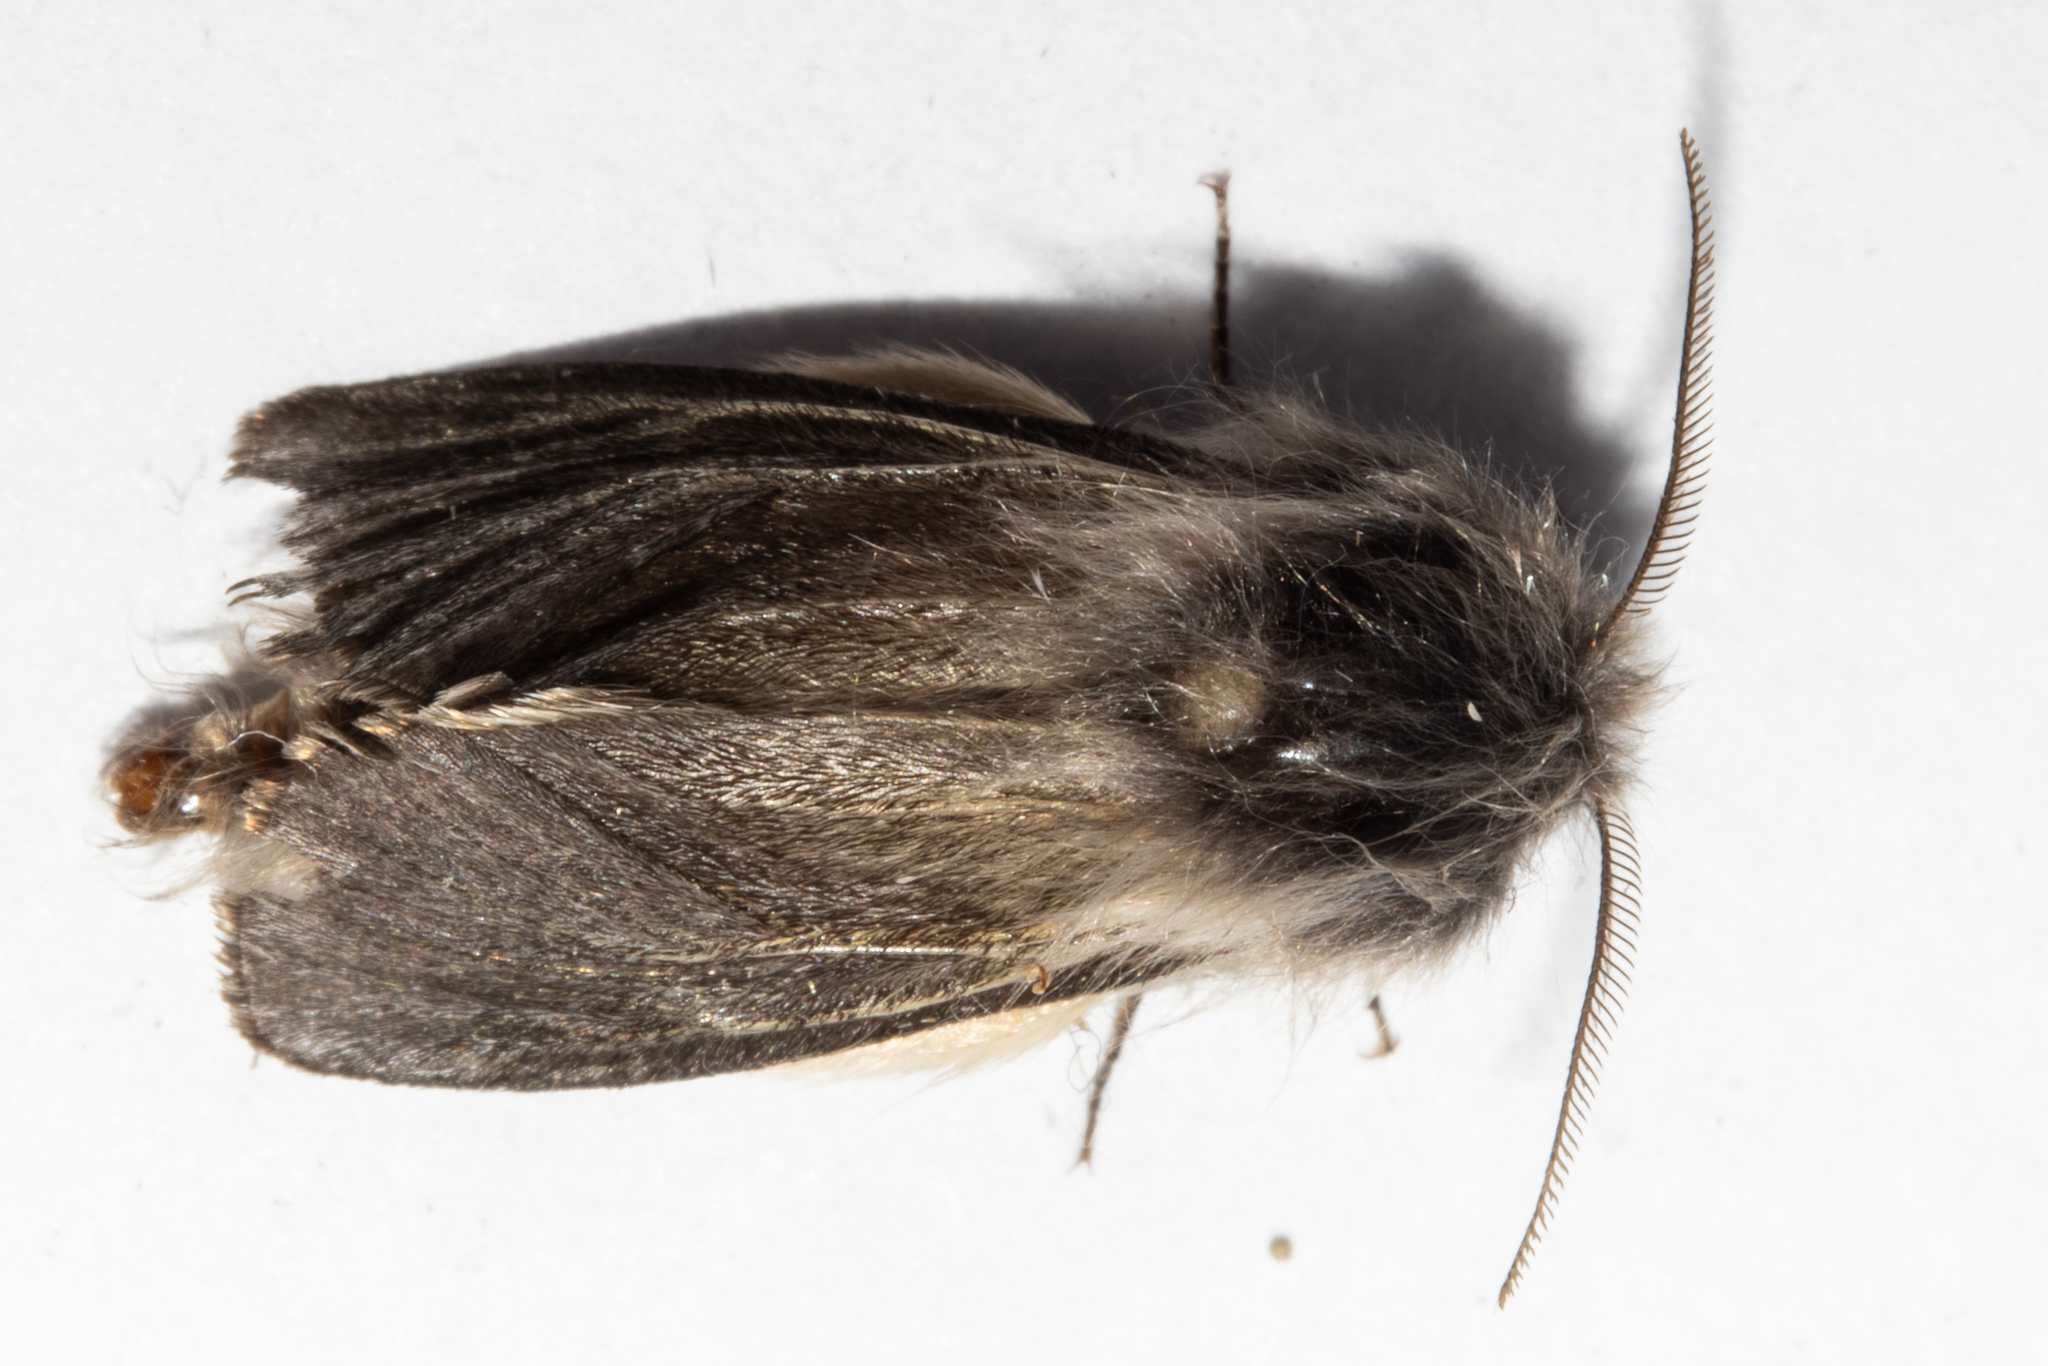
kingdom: Animalia
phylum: Arthropoda
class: Insecta
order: Lepidoptera
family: Psychidae
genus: Orophora
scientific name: Orophora unicolor
